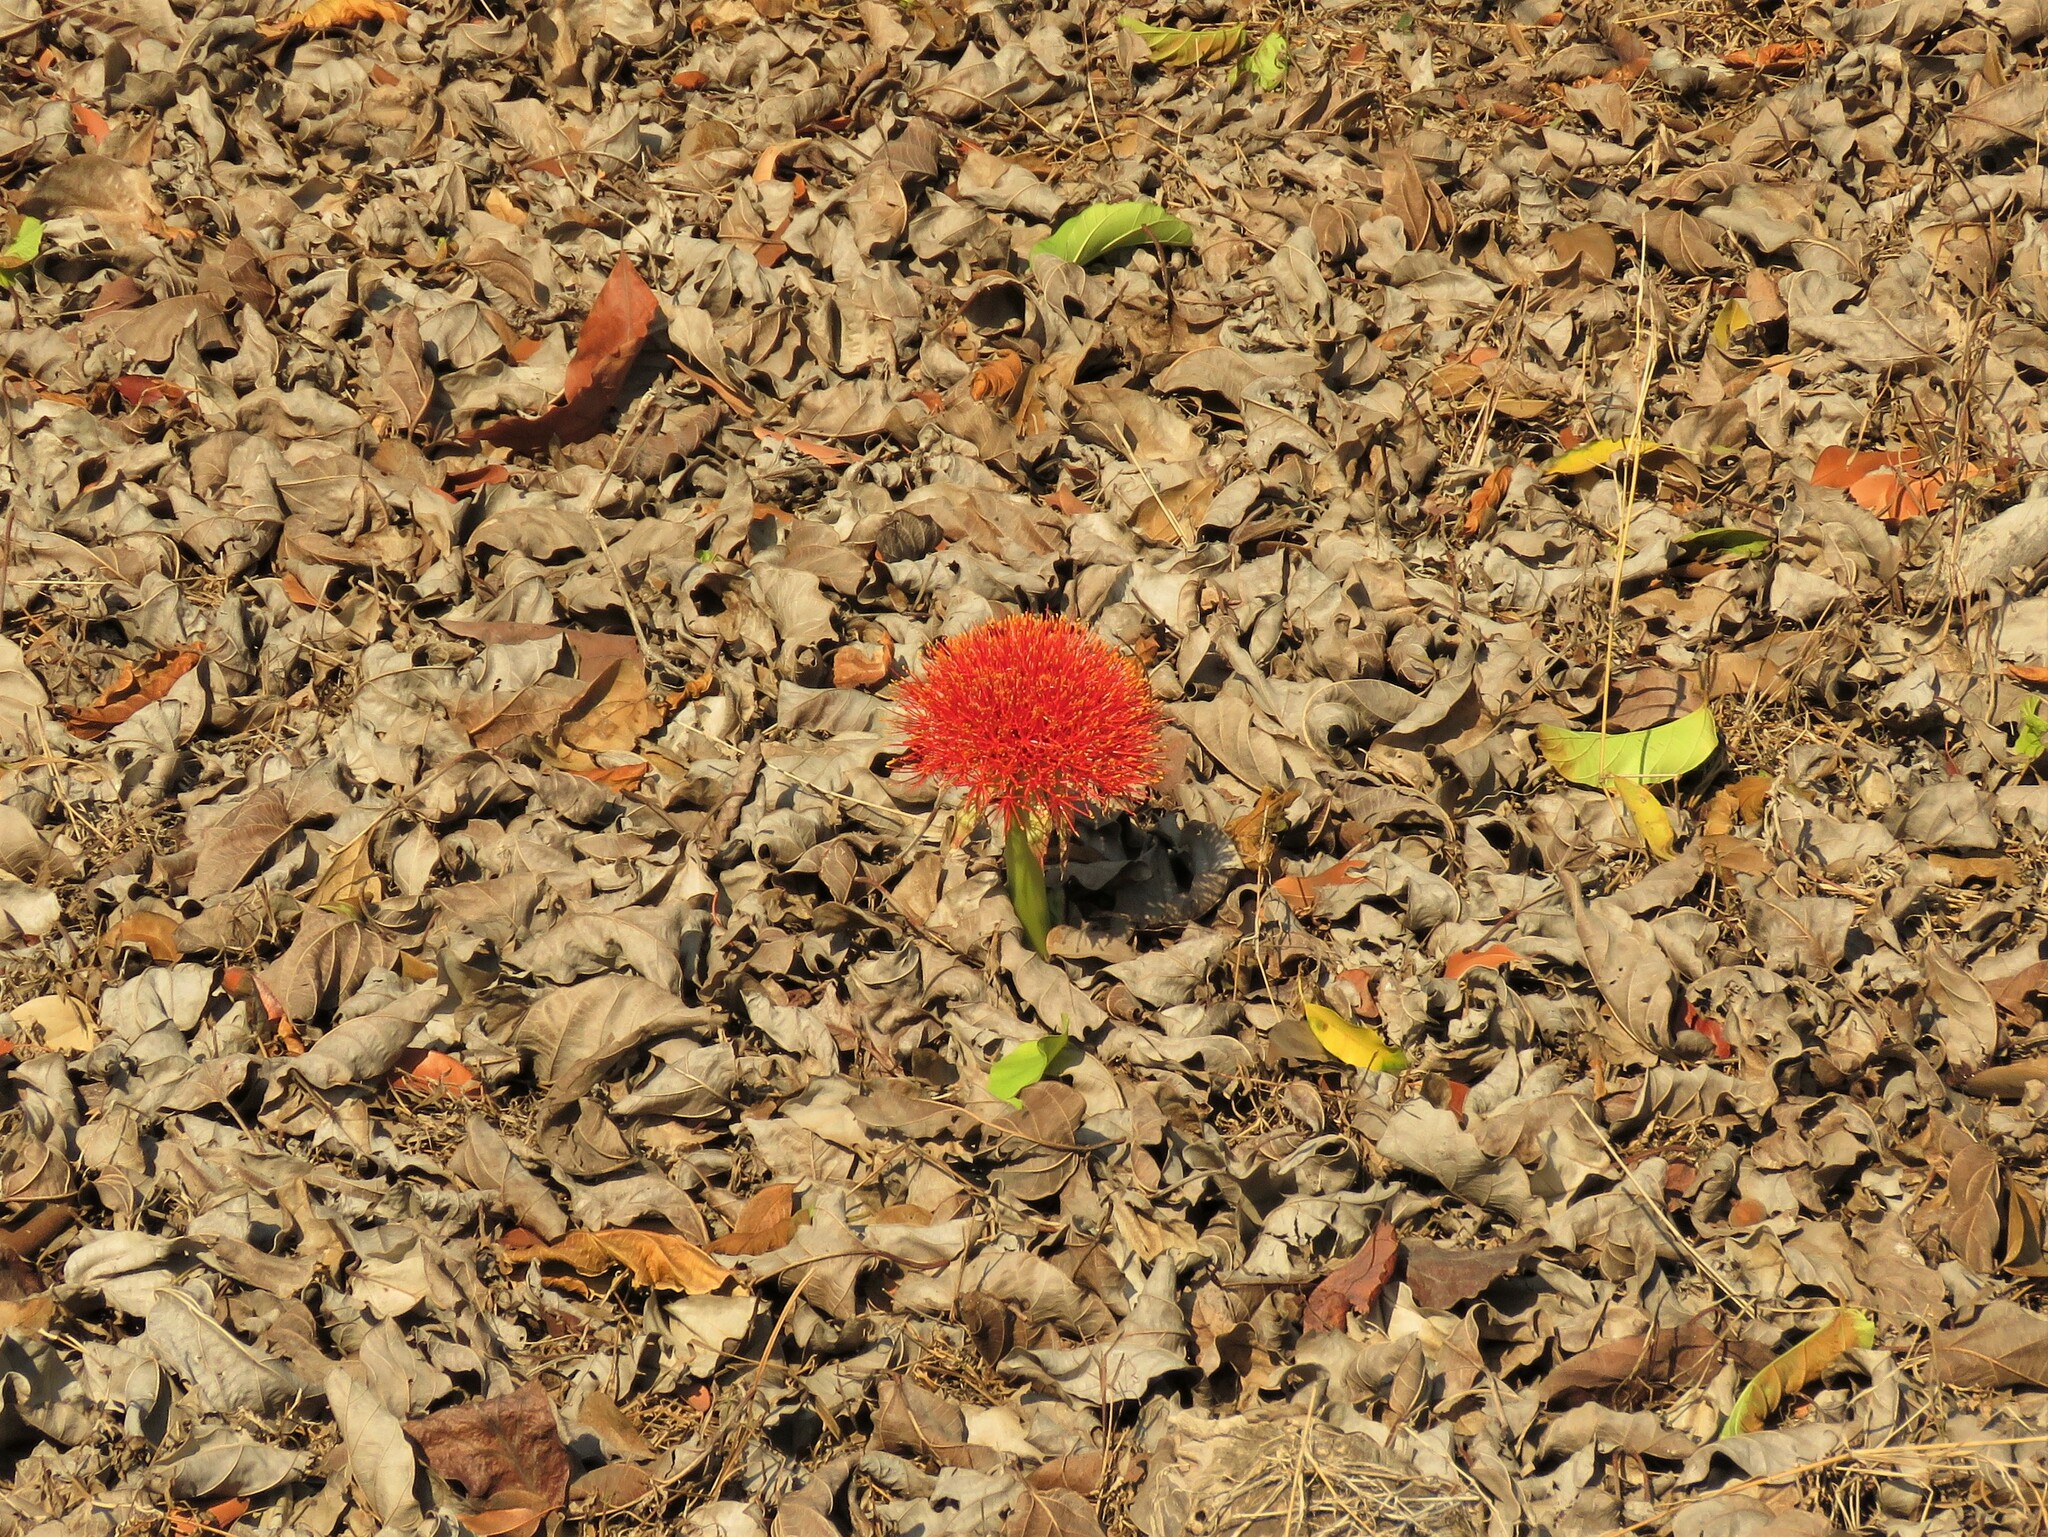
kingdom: Plantae
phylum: Tracheophyta
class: Liliopsida
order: Asparagales
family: Amaryllidaceae
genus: Scadoxus
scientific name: Scadoxus multiflorus
